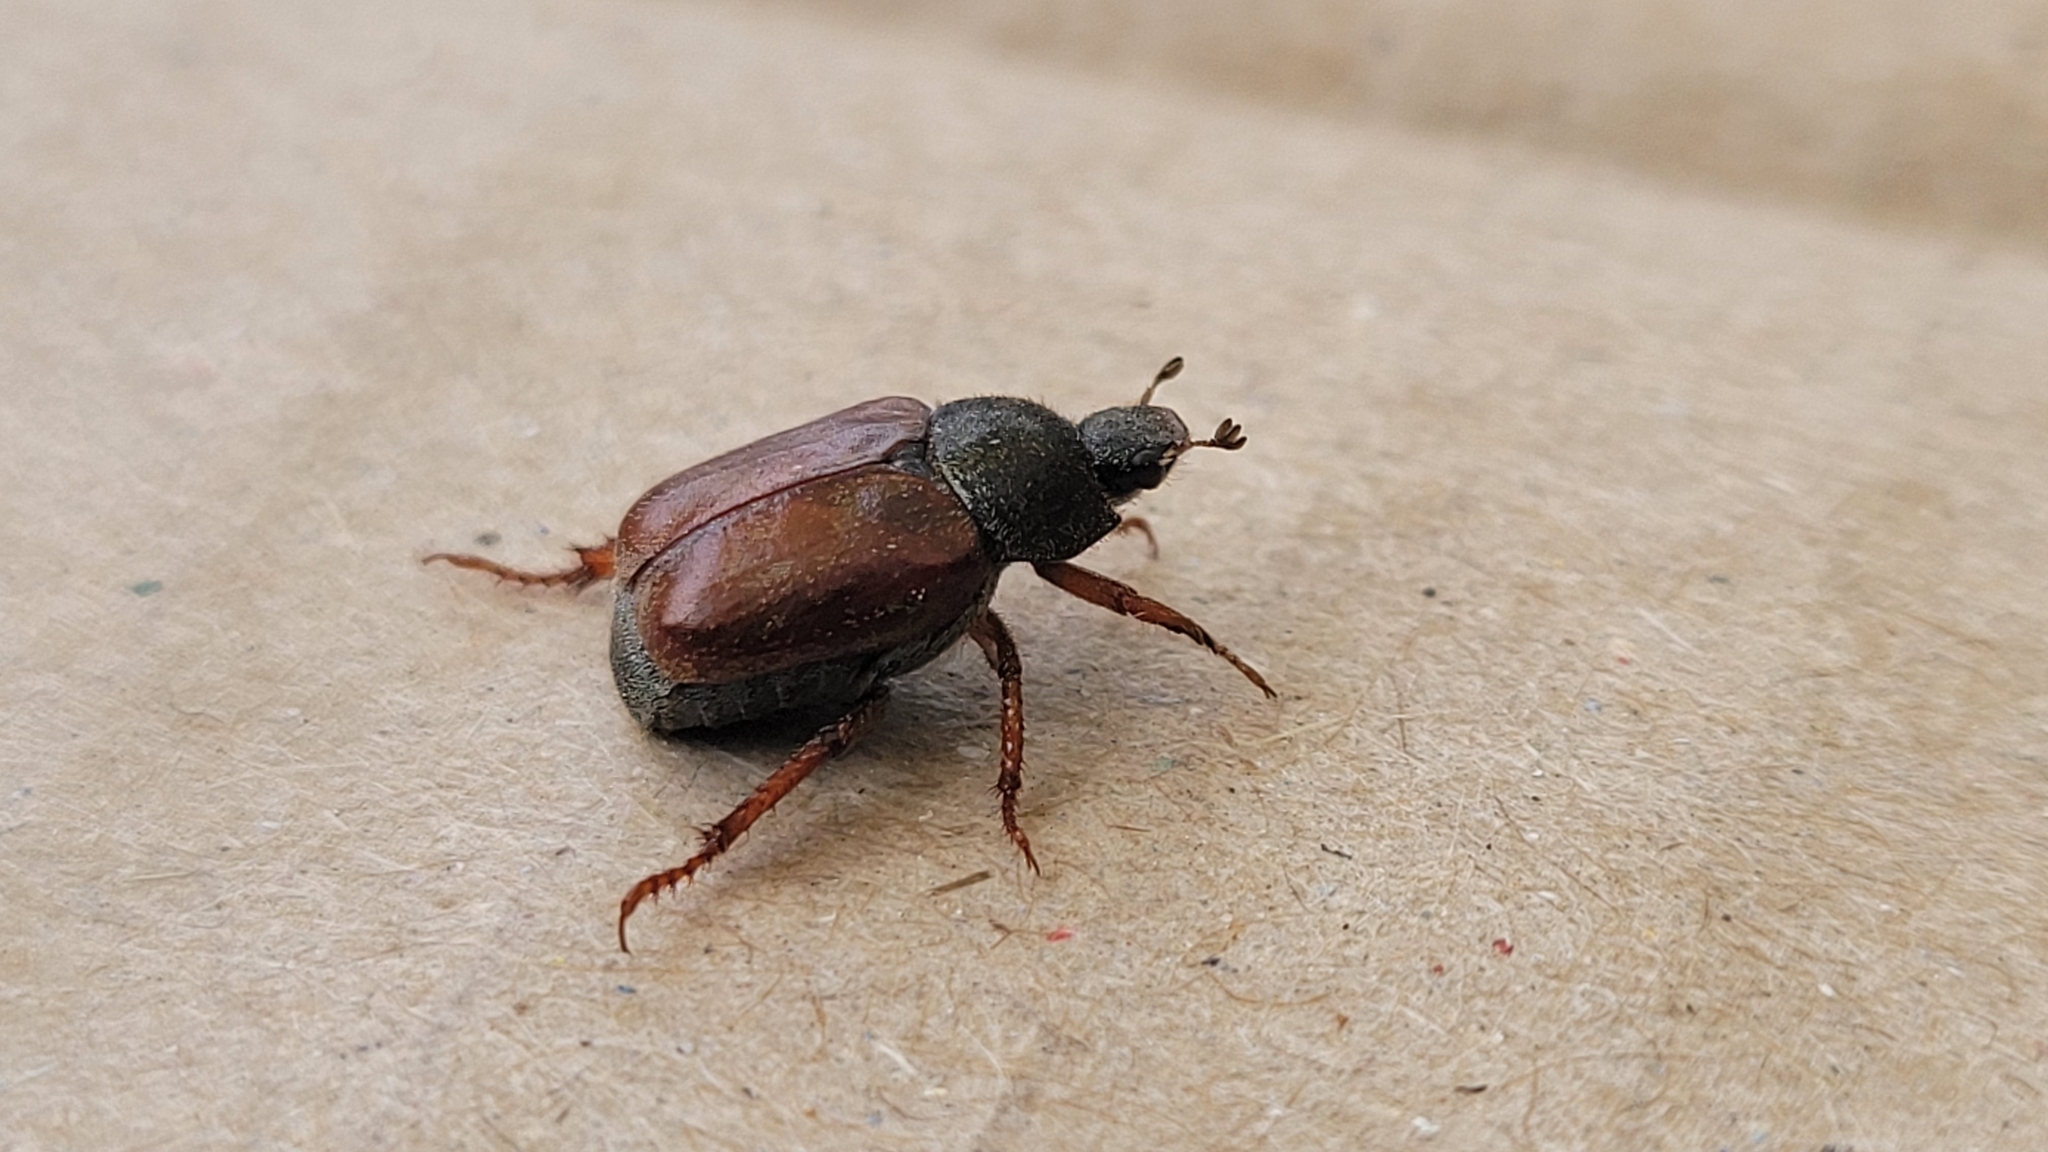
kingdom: Animalia
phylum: Arthropoda
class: Insecta
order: Coleoptera
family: Scarabaeidae
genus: Hoplia
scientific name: Hoplia philanthus
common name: Welsh chafer
